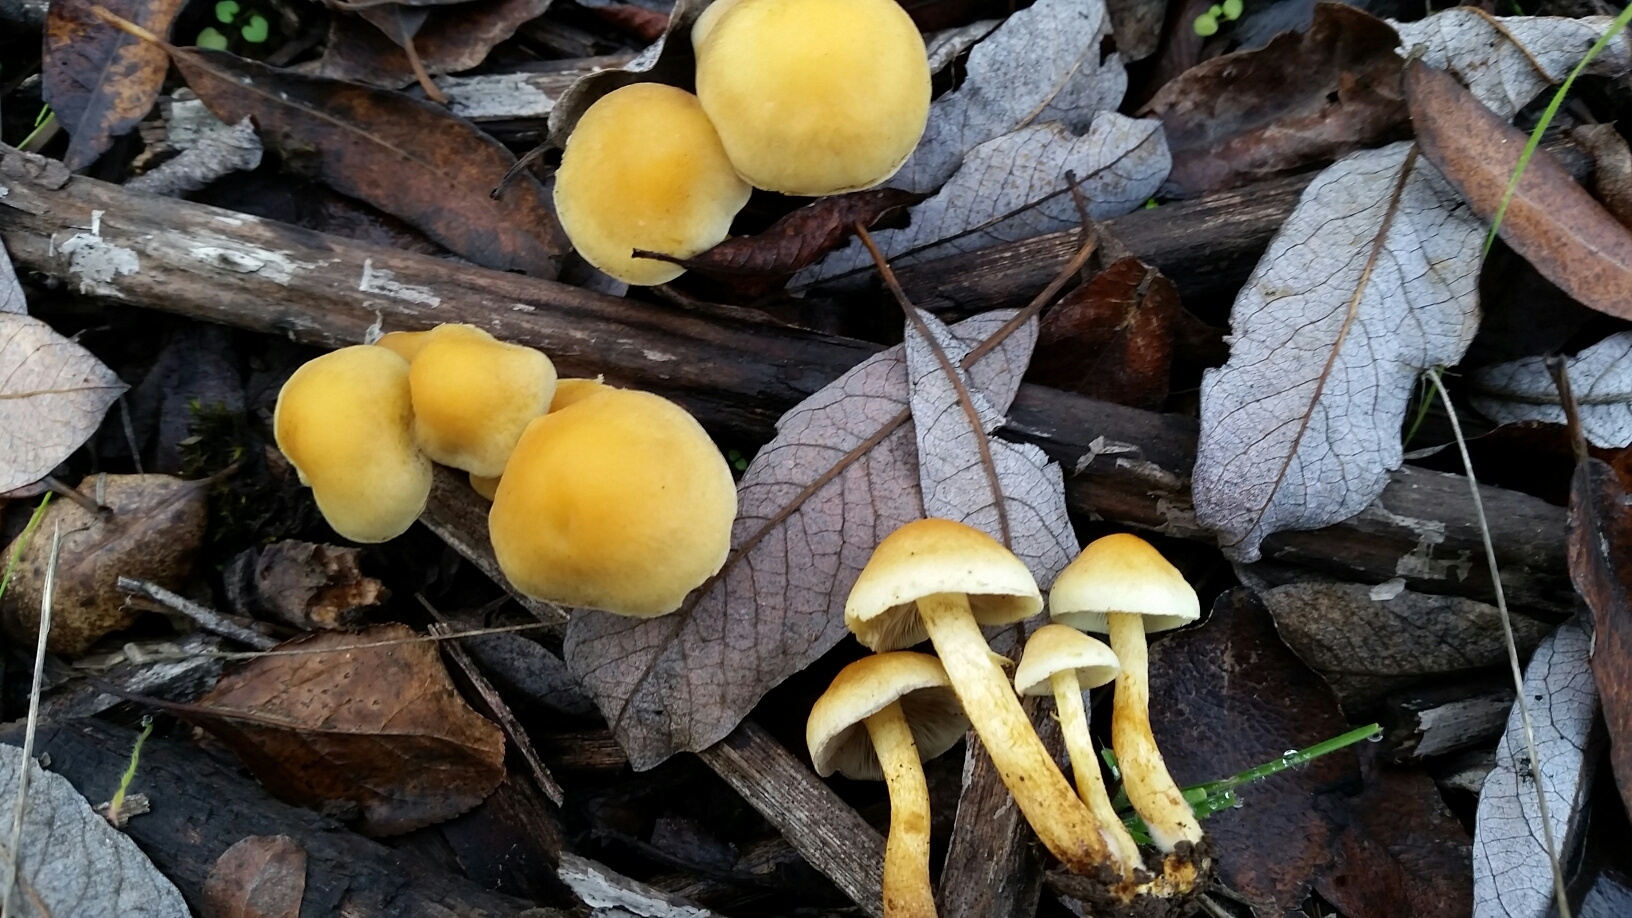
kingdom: Fungi
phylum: Basidiomycota
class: Agaricomycetes
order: Agaricales
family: Strophariaceae
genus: Hypholoma
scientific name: Hypholoma fasciculare
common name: Sulphur tuft
